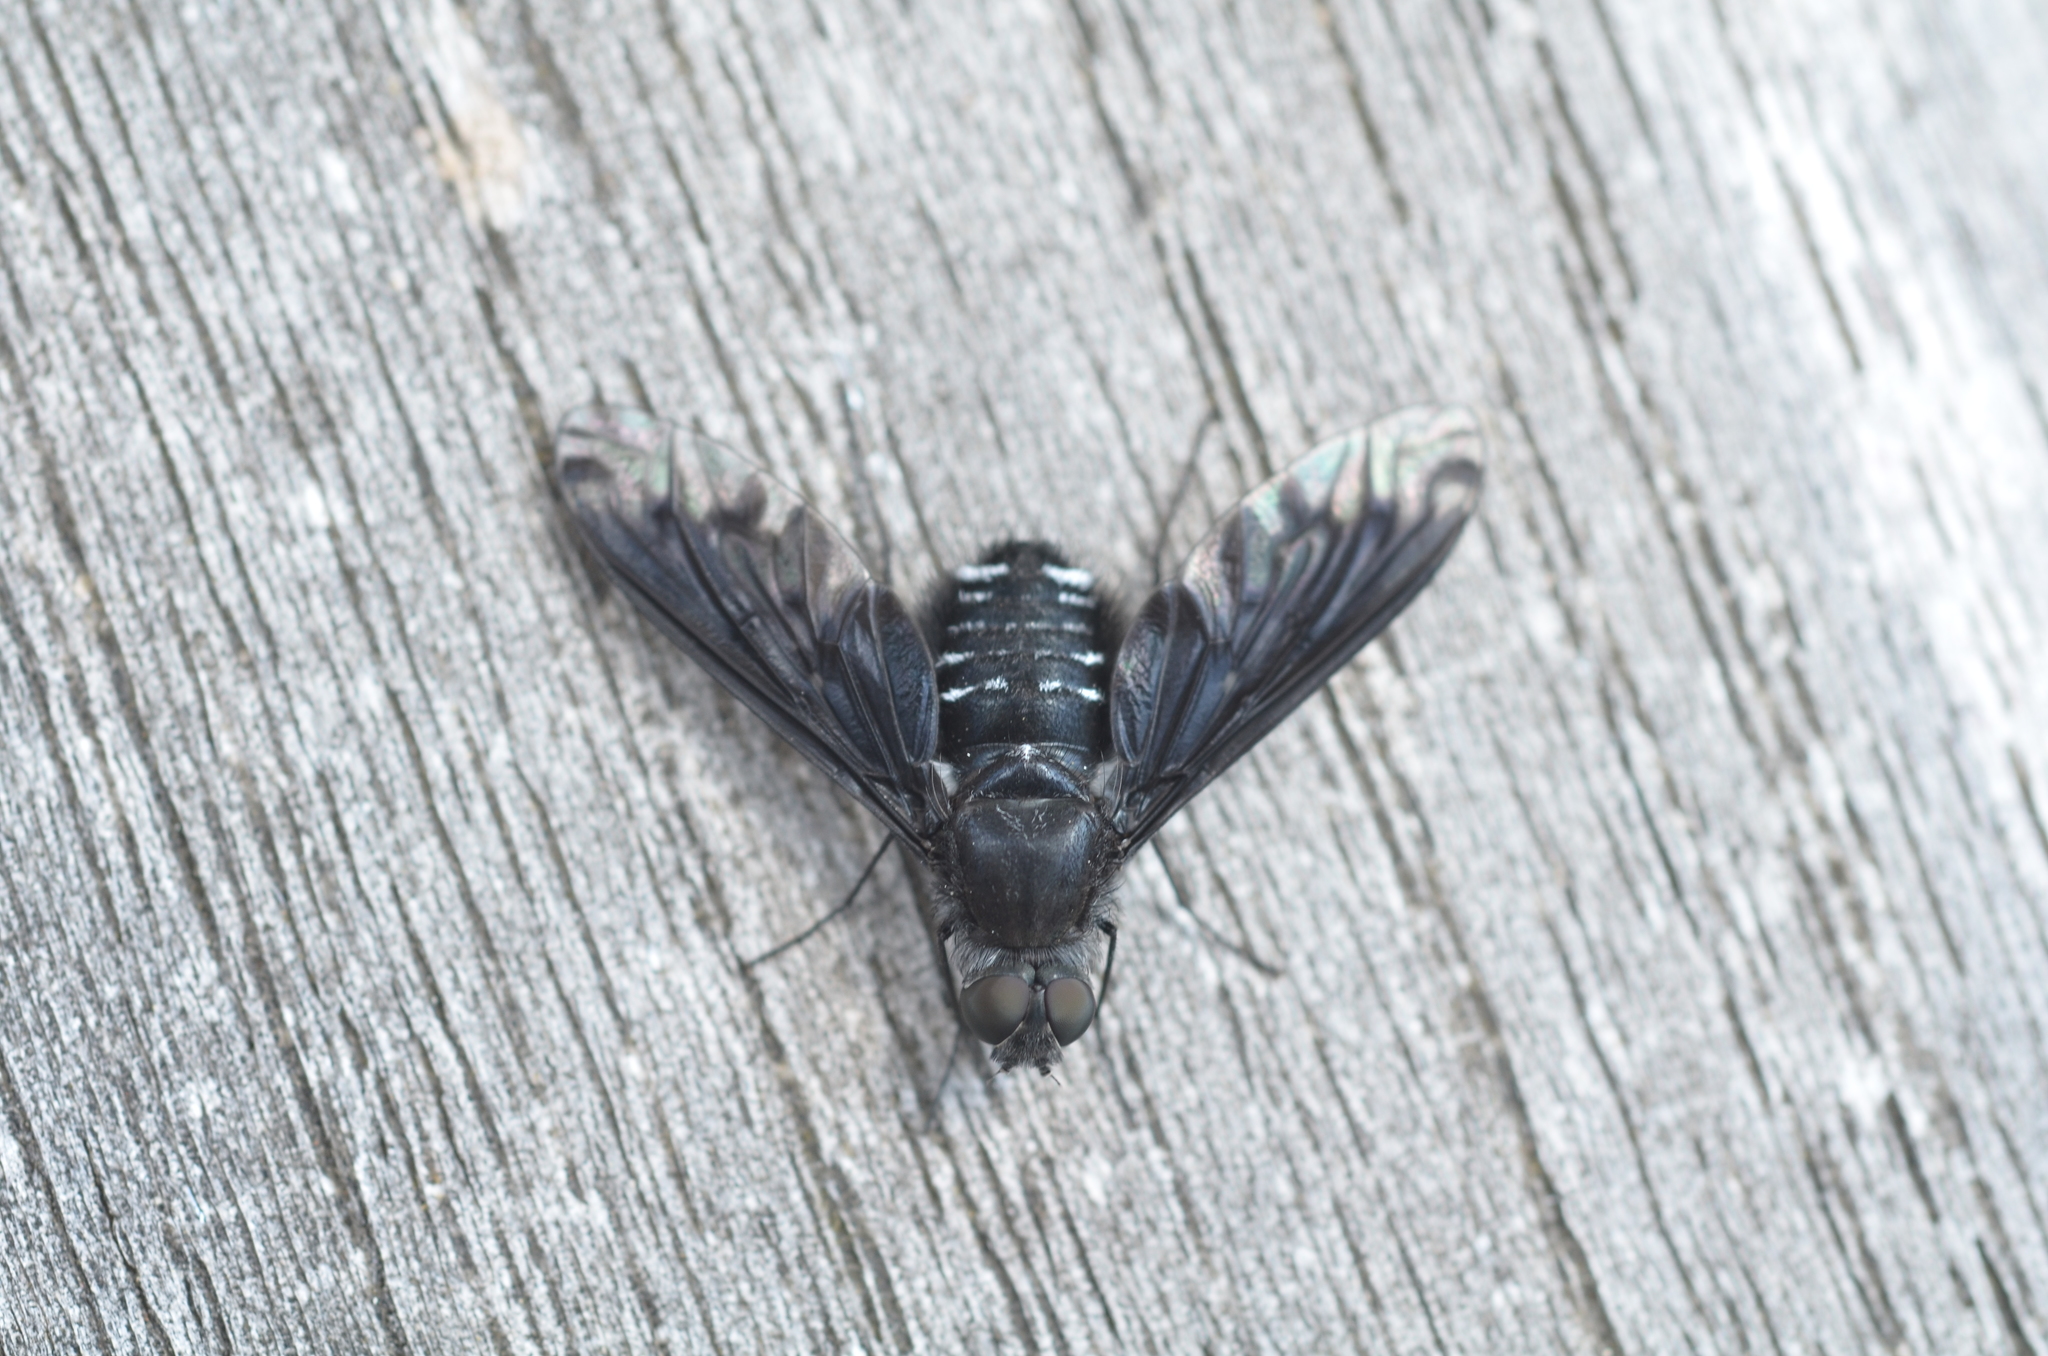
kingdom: Animalia
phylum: Arthropoda
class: Insecta
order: Diptera
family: Bombyliidae
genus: Anthrax
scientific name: Anthrax anthrax
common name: Anthracite bee-fly
